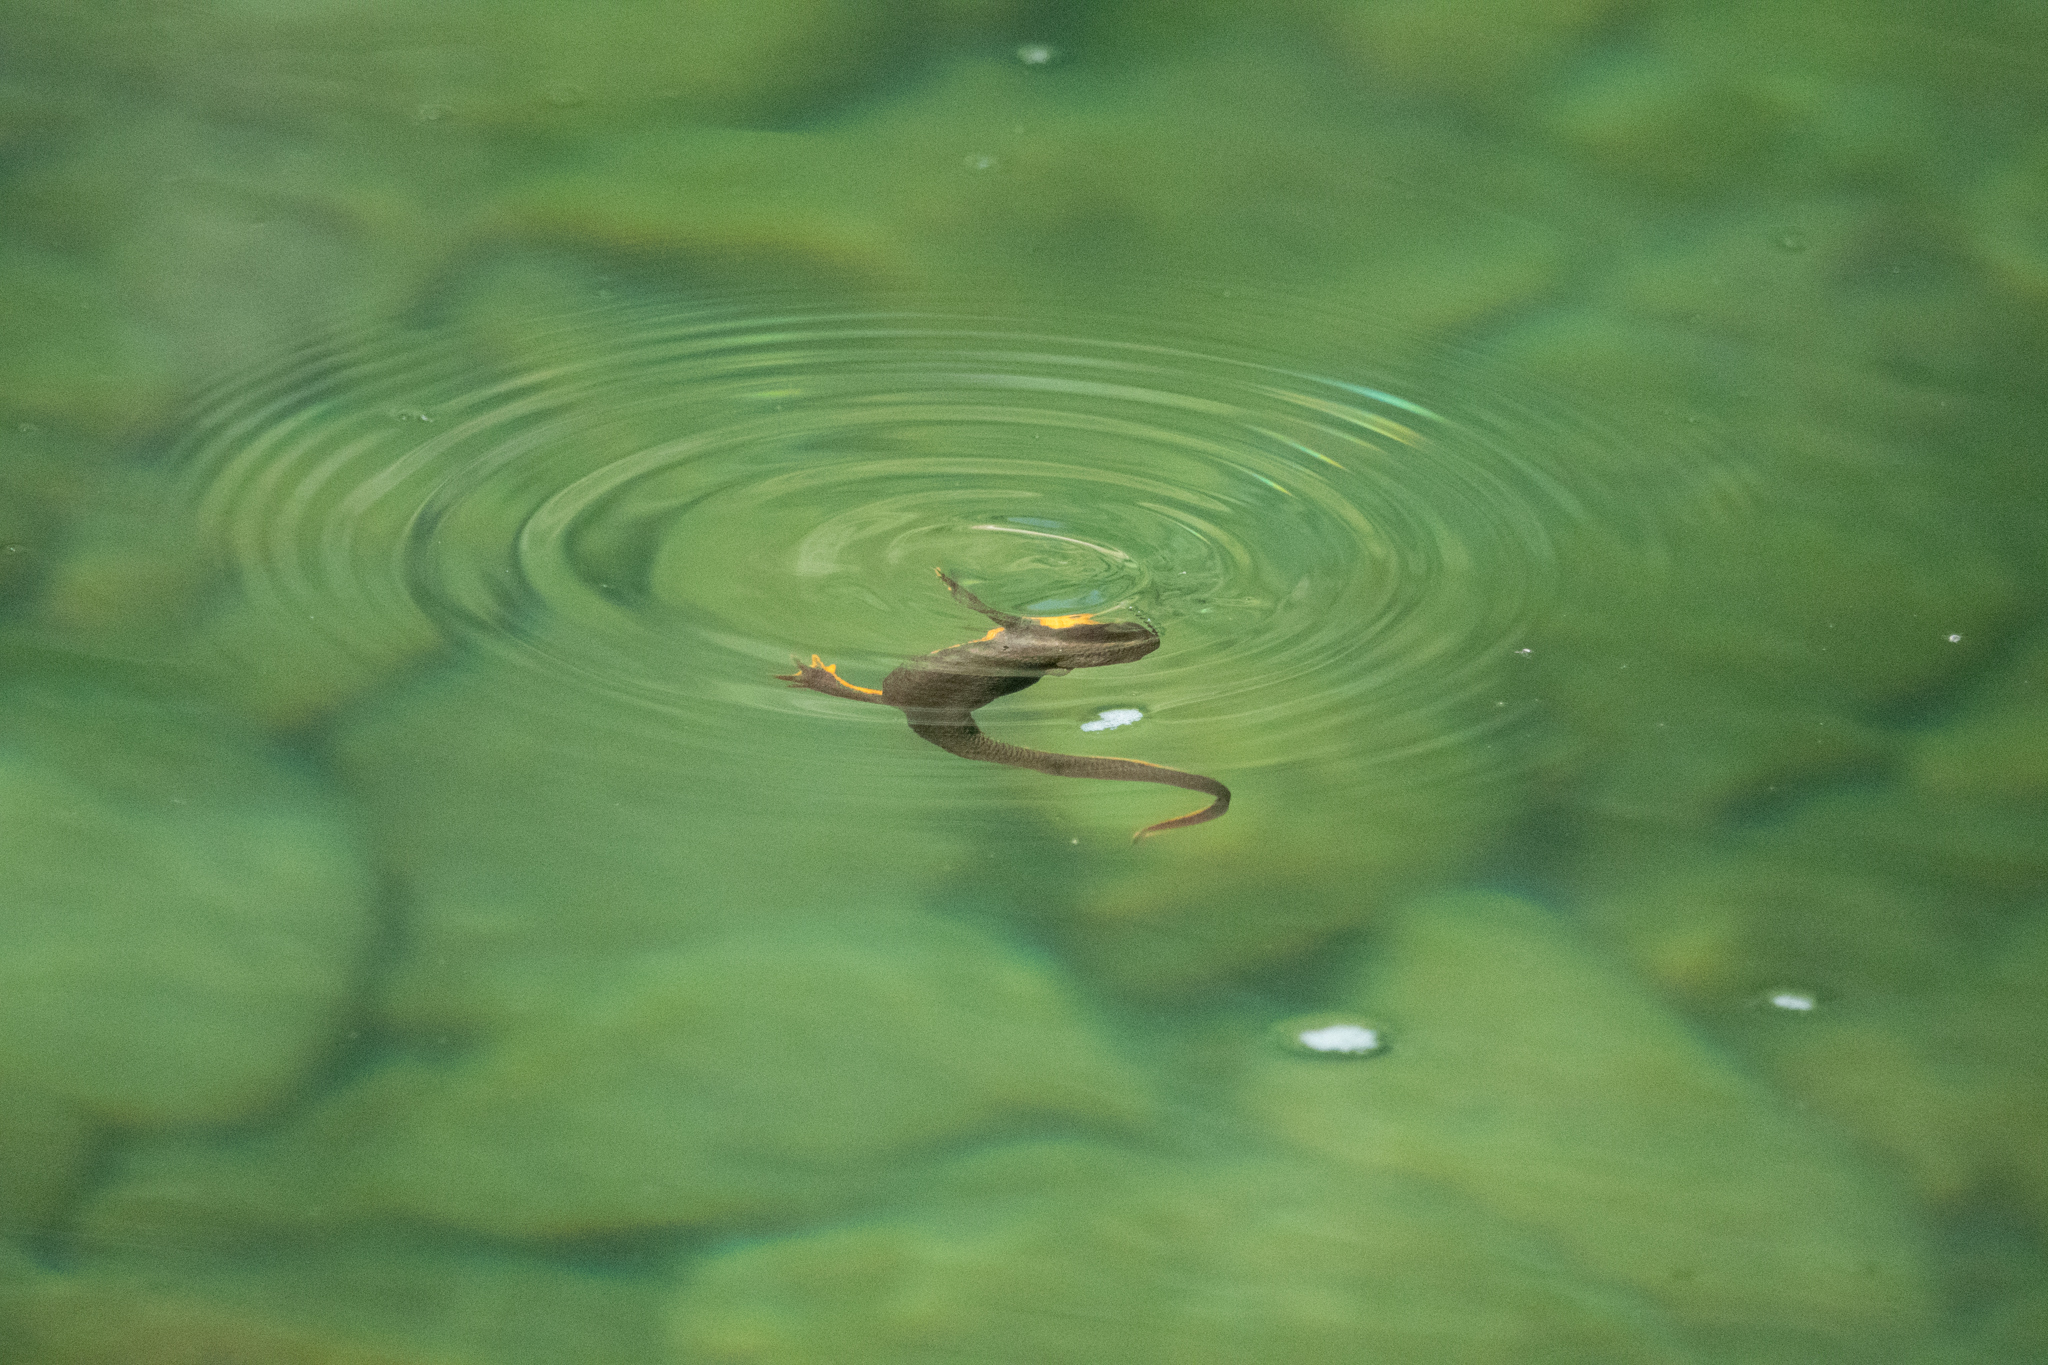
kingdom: Animalia
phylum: Chordata
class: Amphibia
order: Caudata
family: Salamandridae
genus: Taricha
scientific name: Taricha granulosa
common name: Roughskin newt
